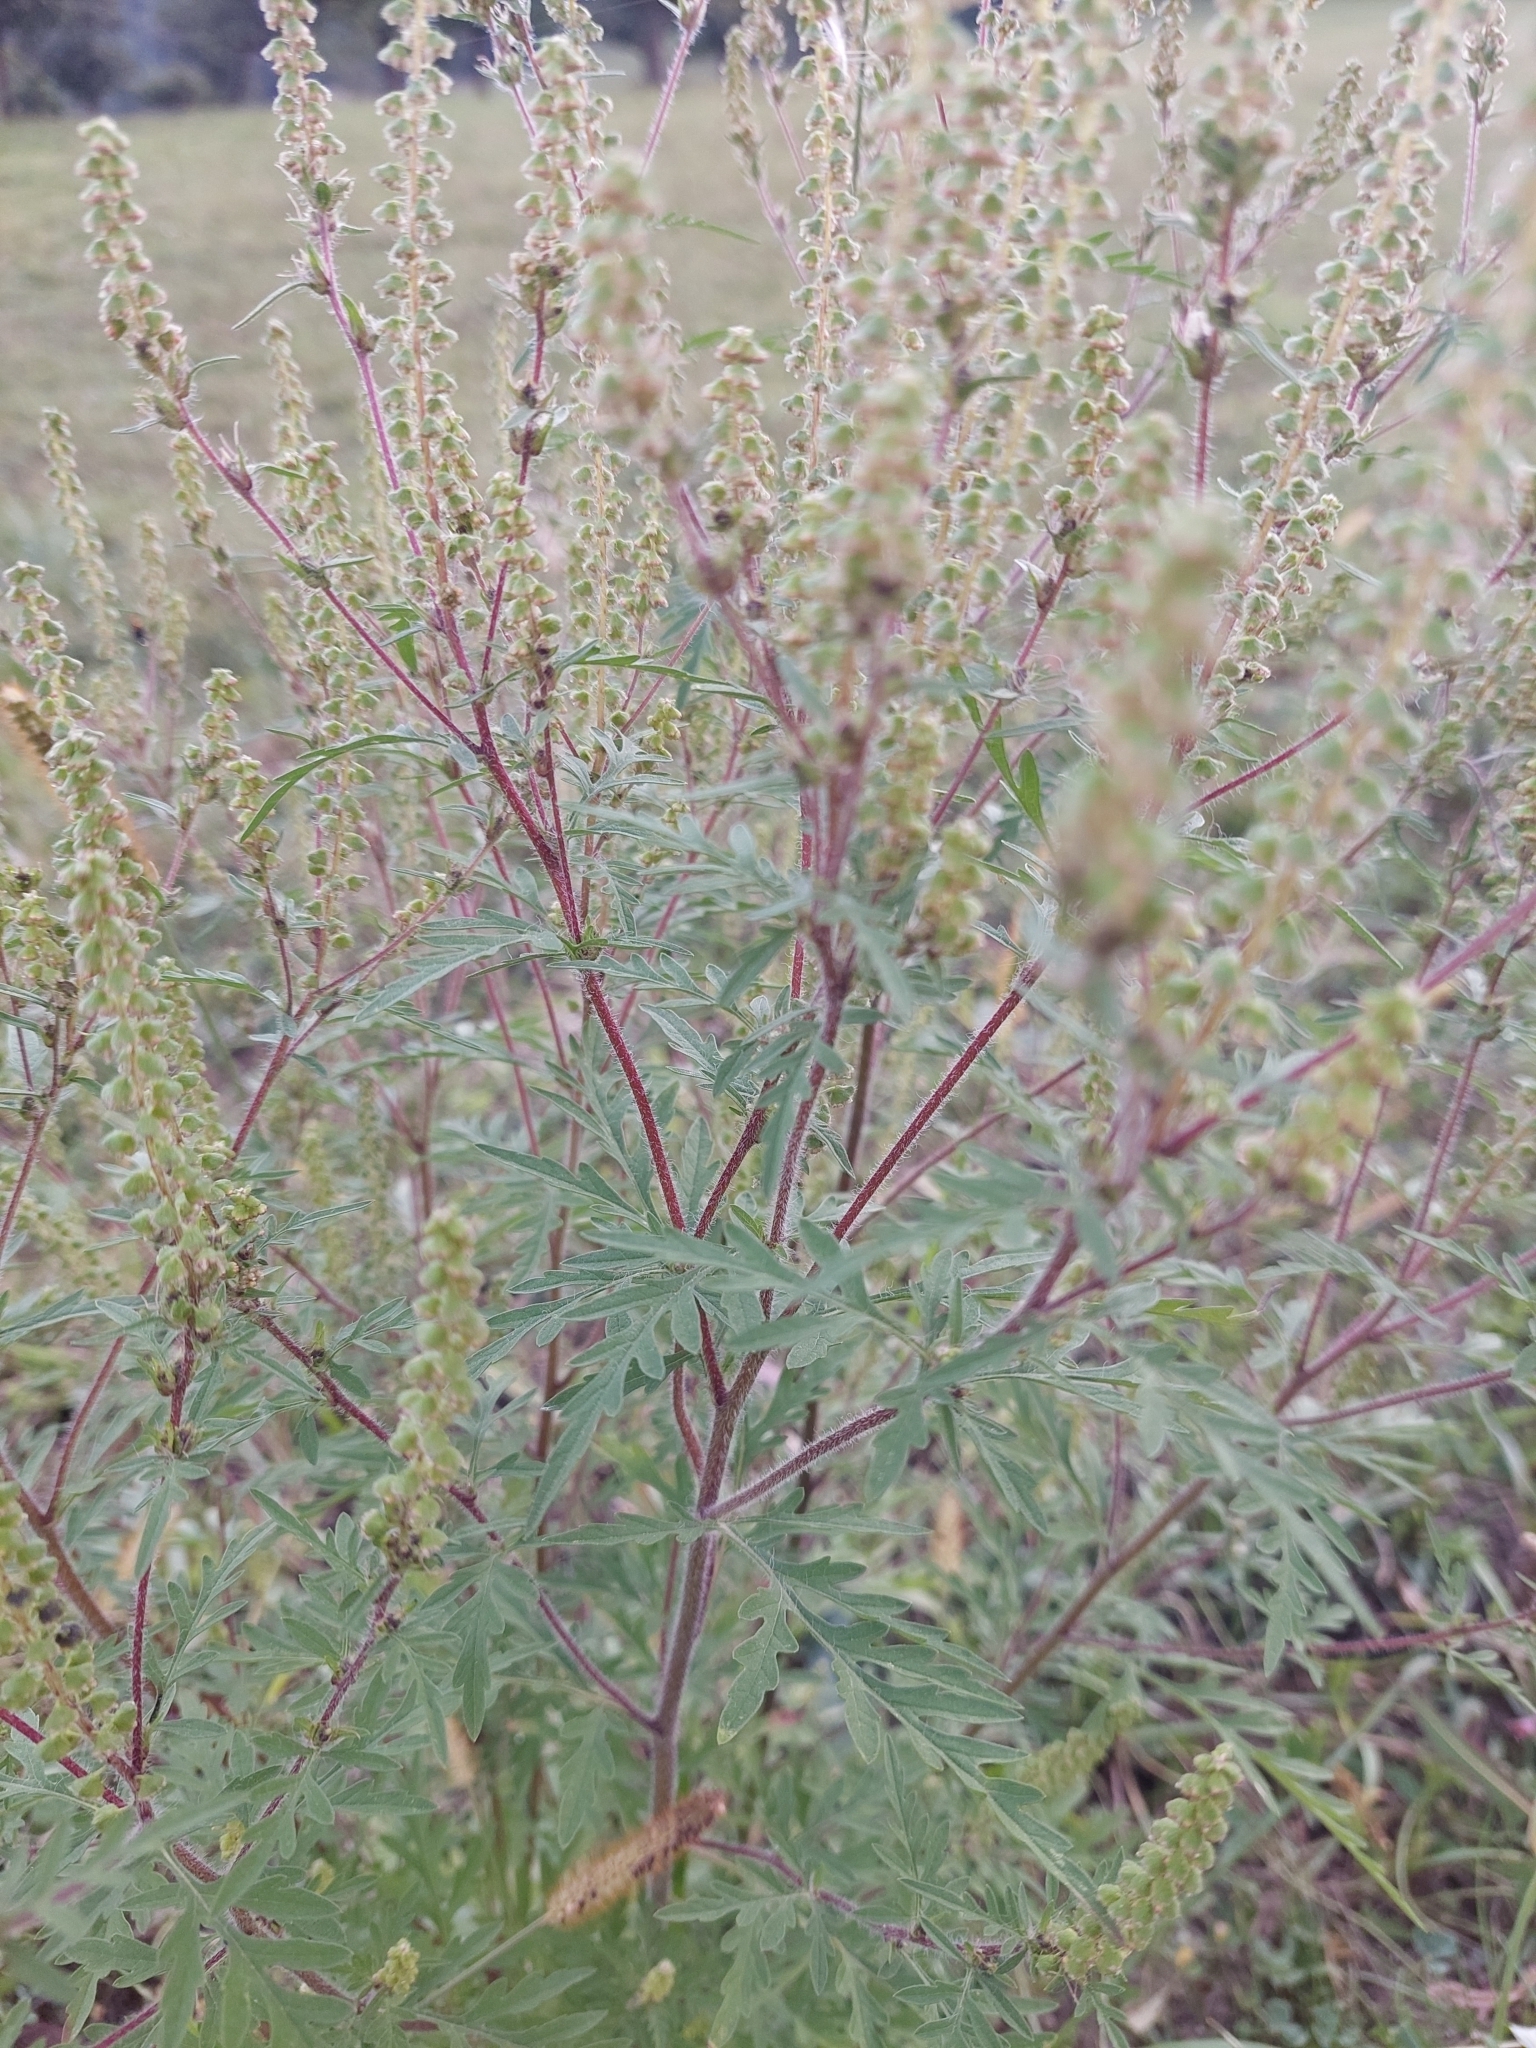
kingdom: Plantae
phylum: Tracheophyta
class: Magnoliopsida
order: Asterales
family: Asteraceae
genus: Ambrosia
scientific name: Ambrosia artemisiifolia
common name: Annual ragweed
